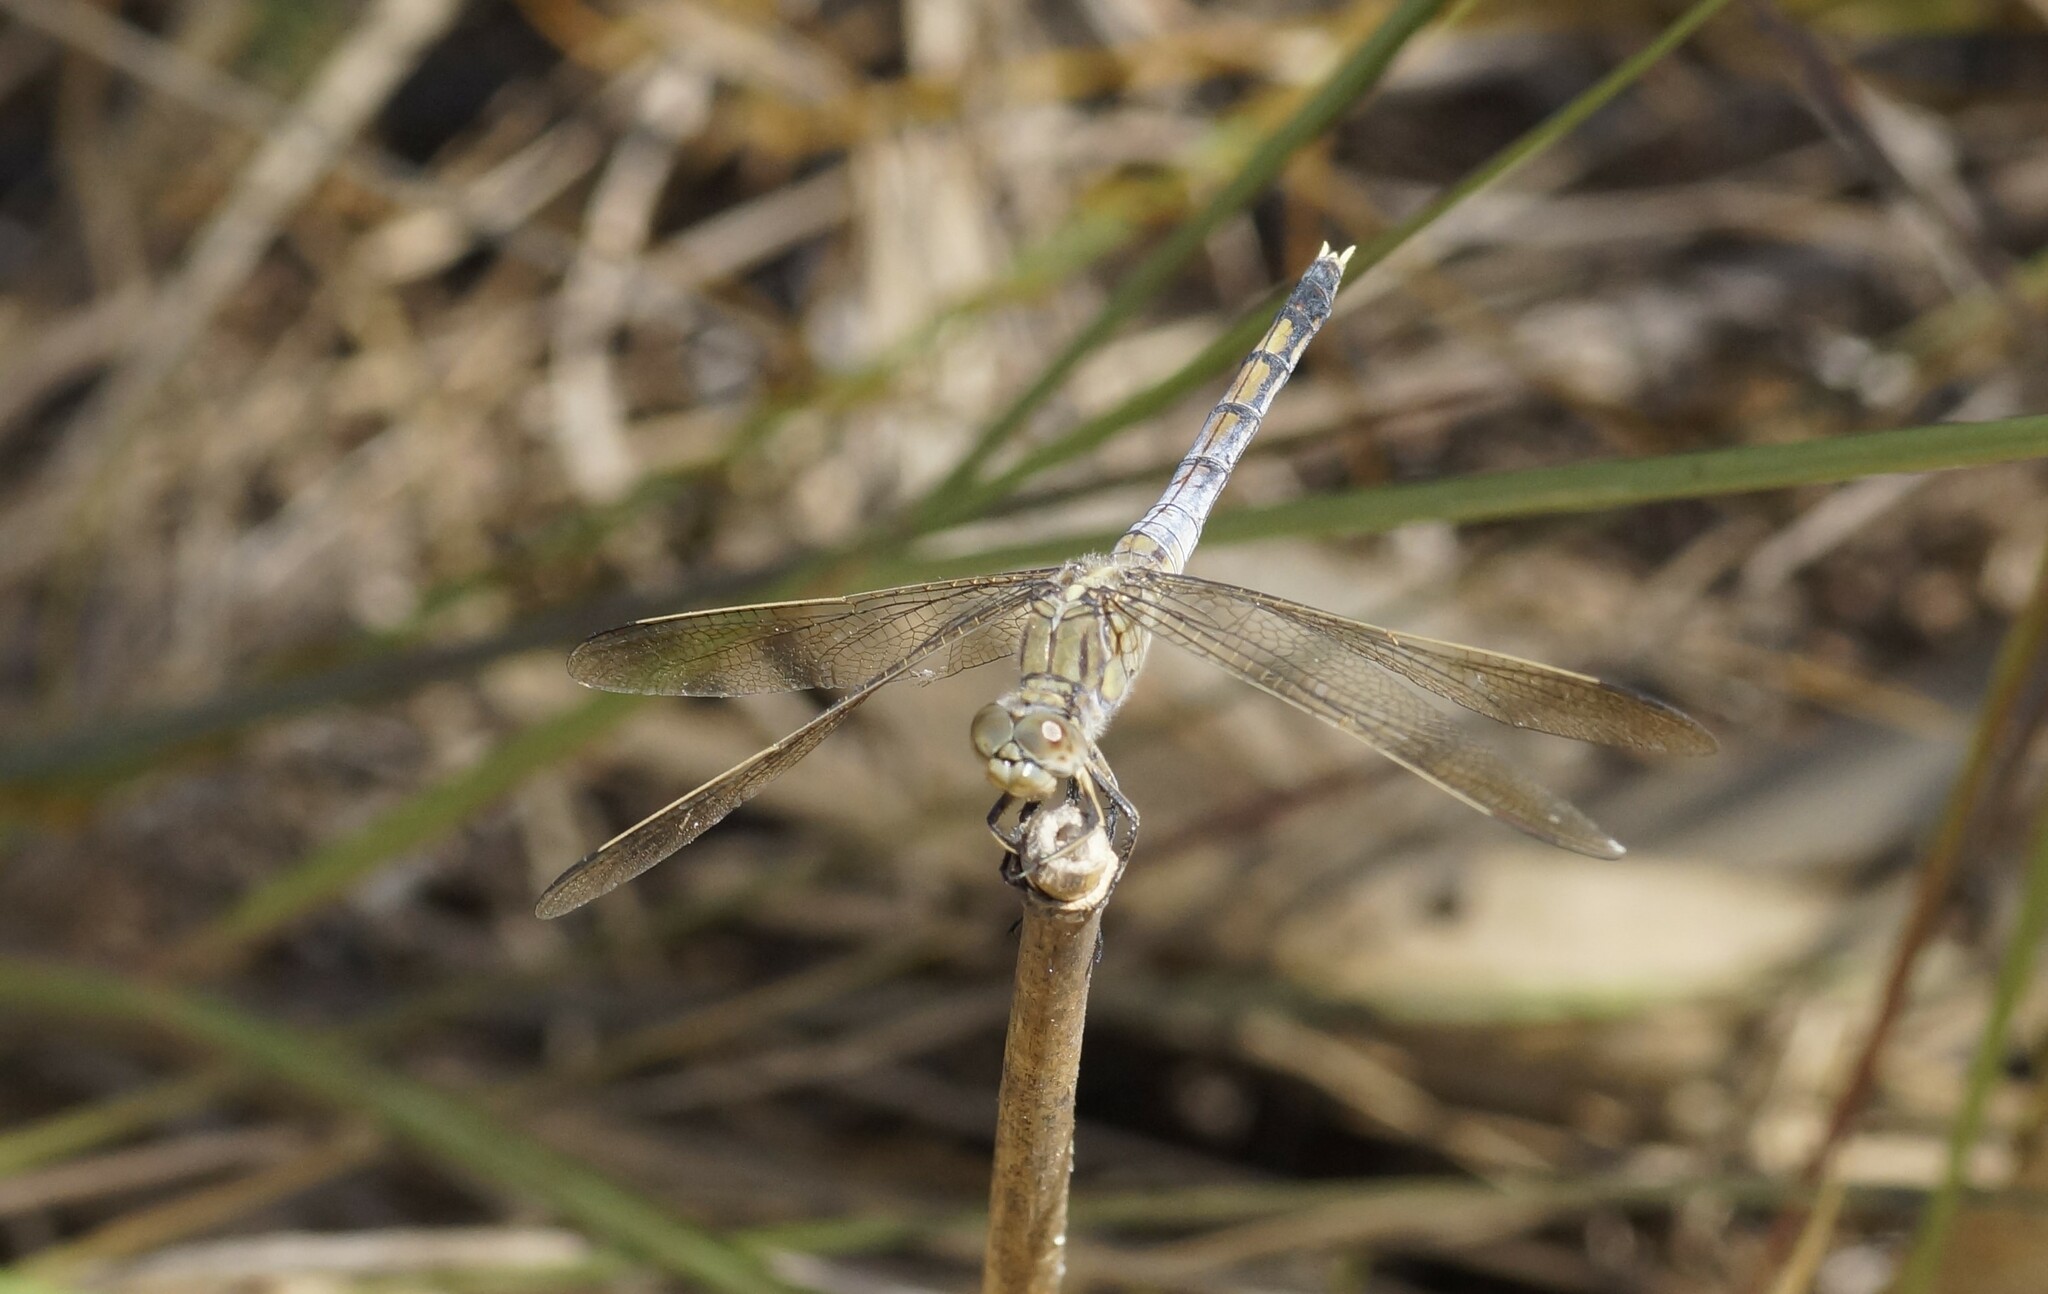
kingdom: Animalia
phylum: Arthropoda
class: Insecta
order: Odonata
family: Libellulidae
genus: Orthetrum
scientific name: Orthetrum caledonicum
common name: Blue skimmer
